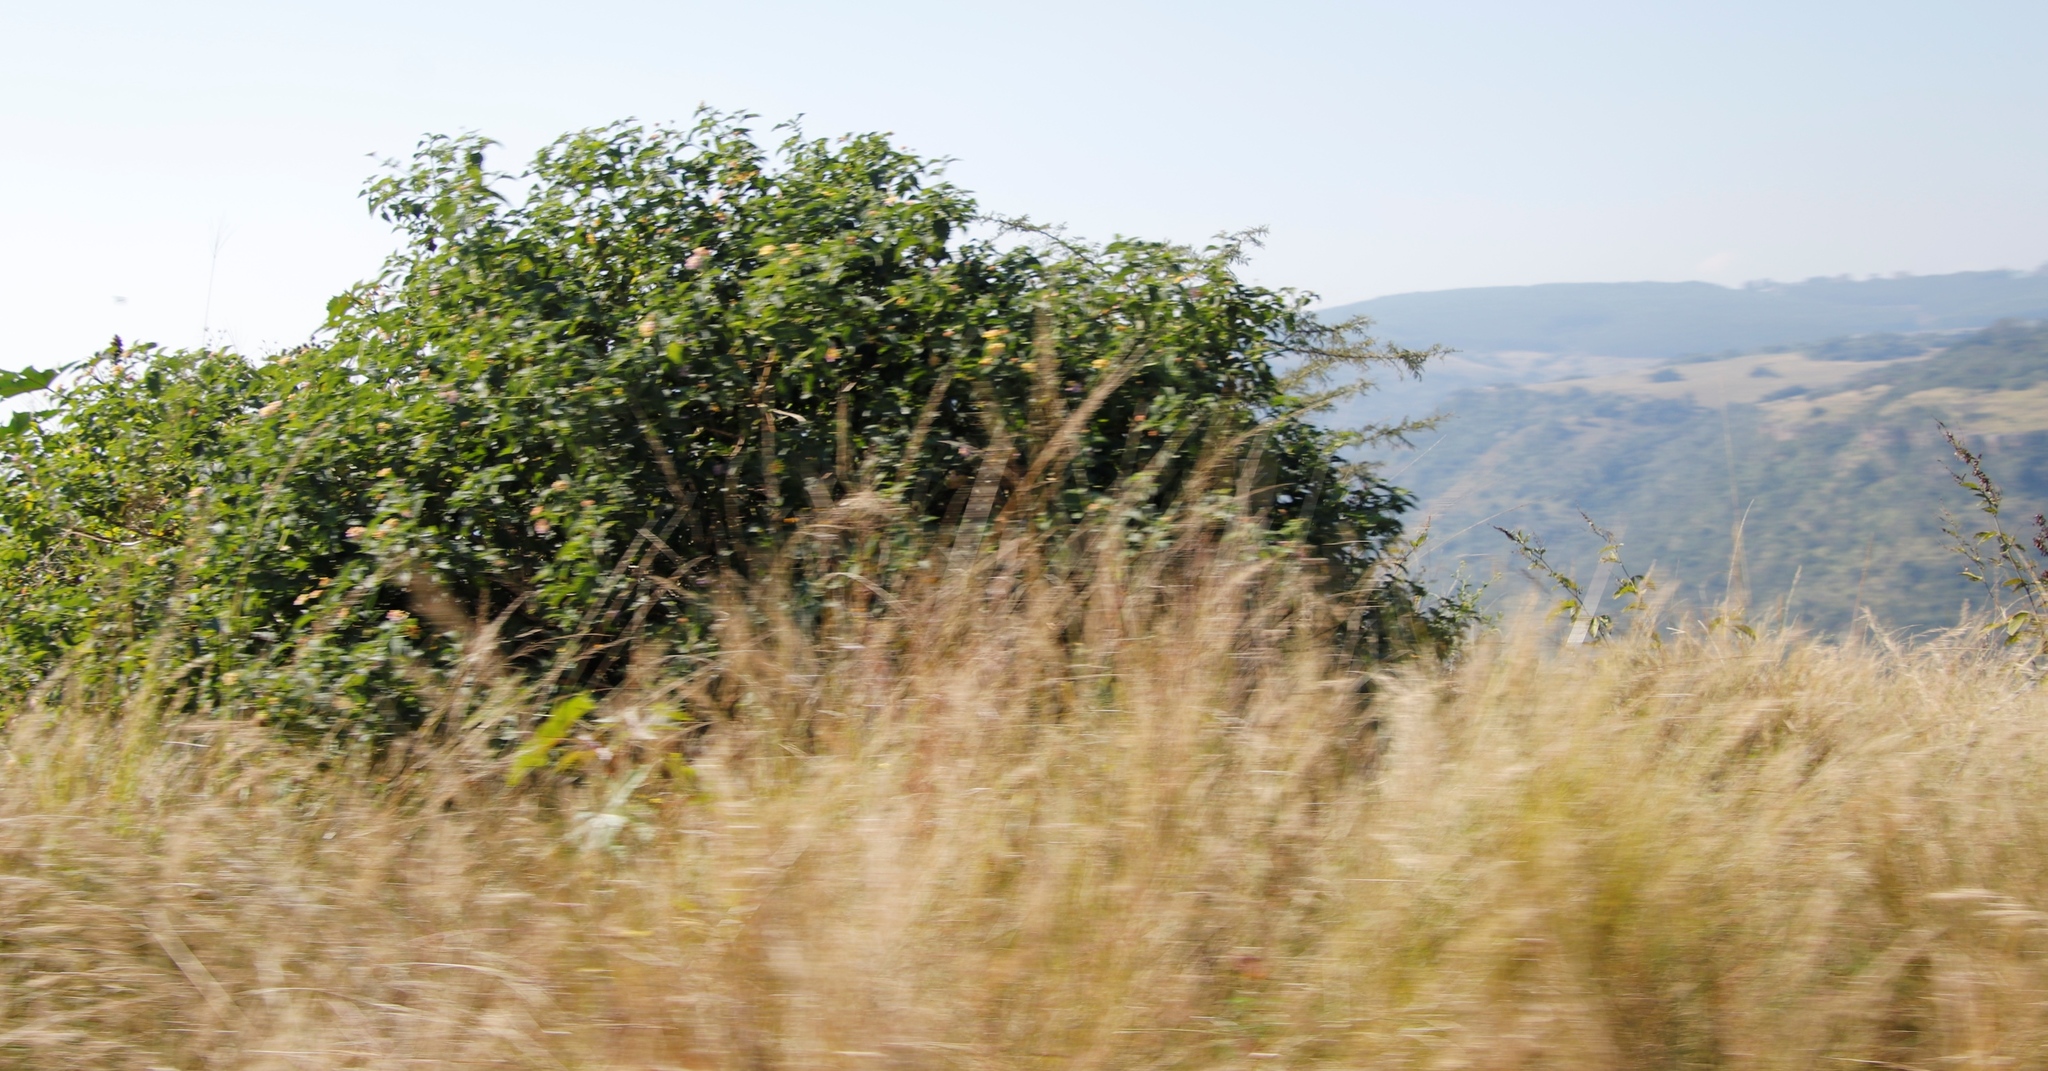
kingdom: Plantae
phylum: Tracheophyta
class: Magnoliopsida
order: Lamiales
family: Verbenaceae
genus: Lantana
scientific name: Lantana camara
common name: Lantana
